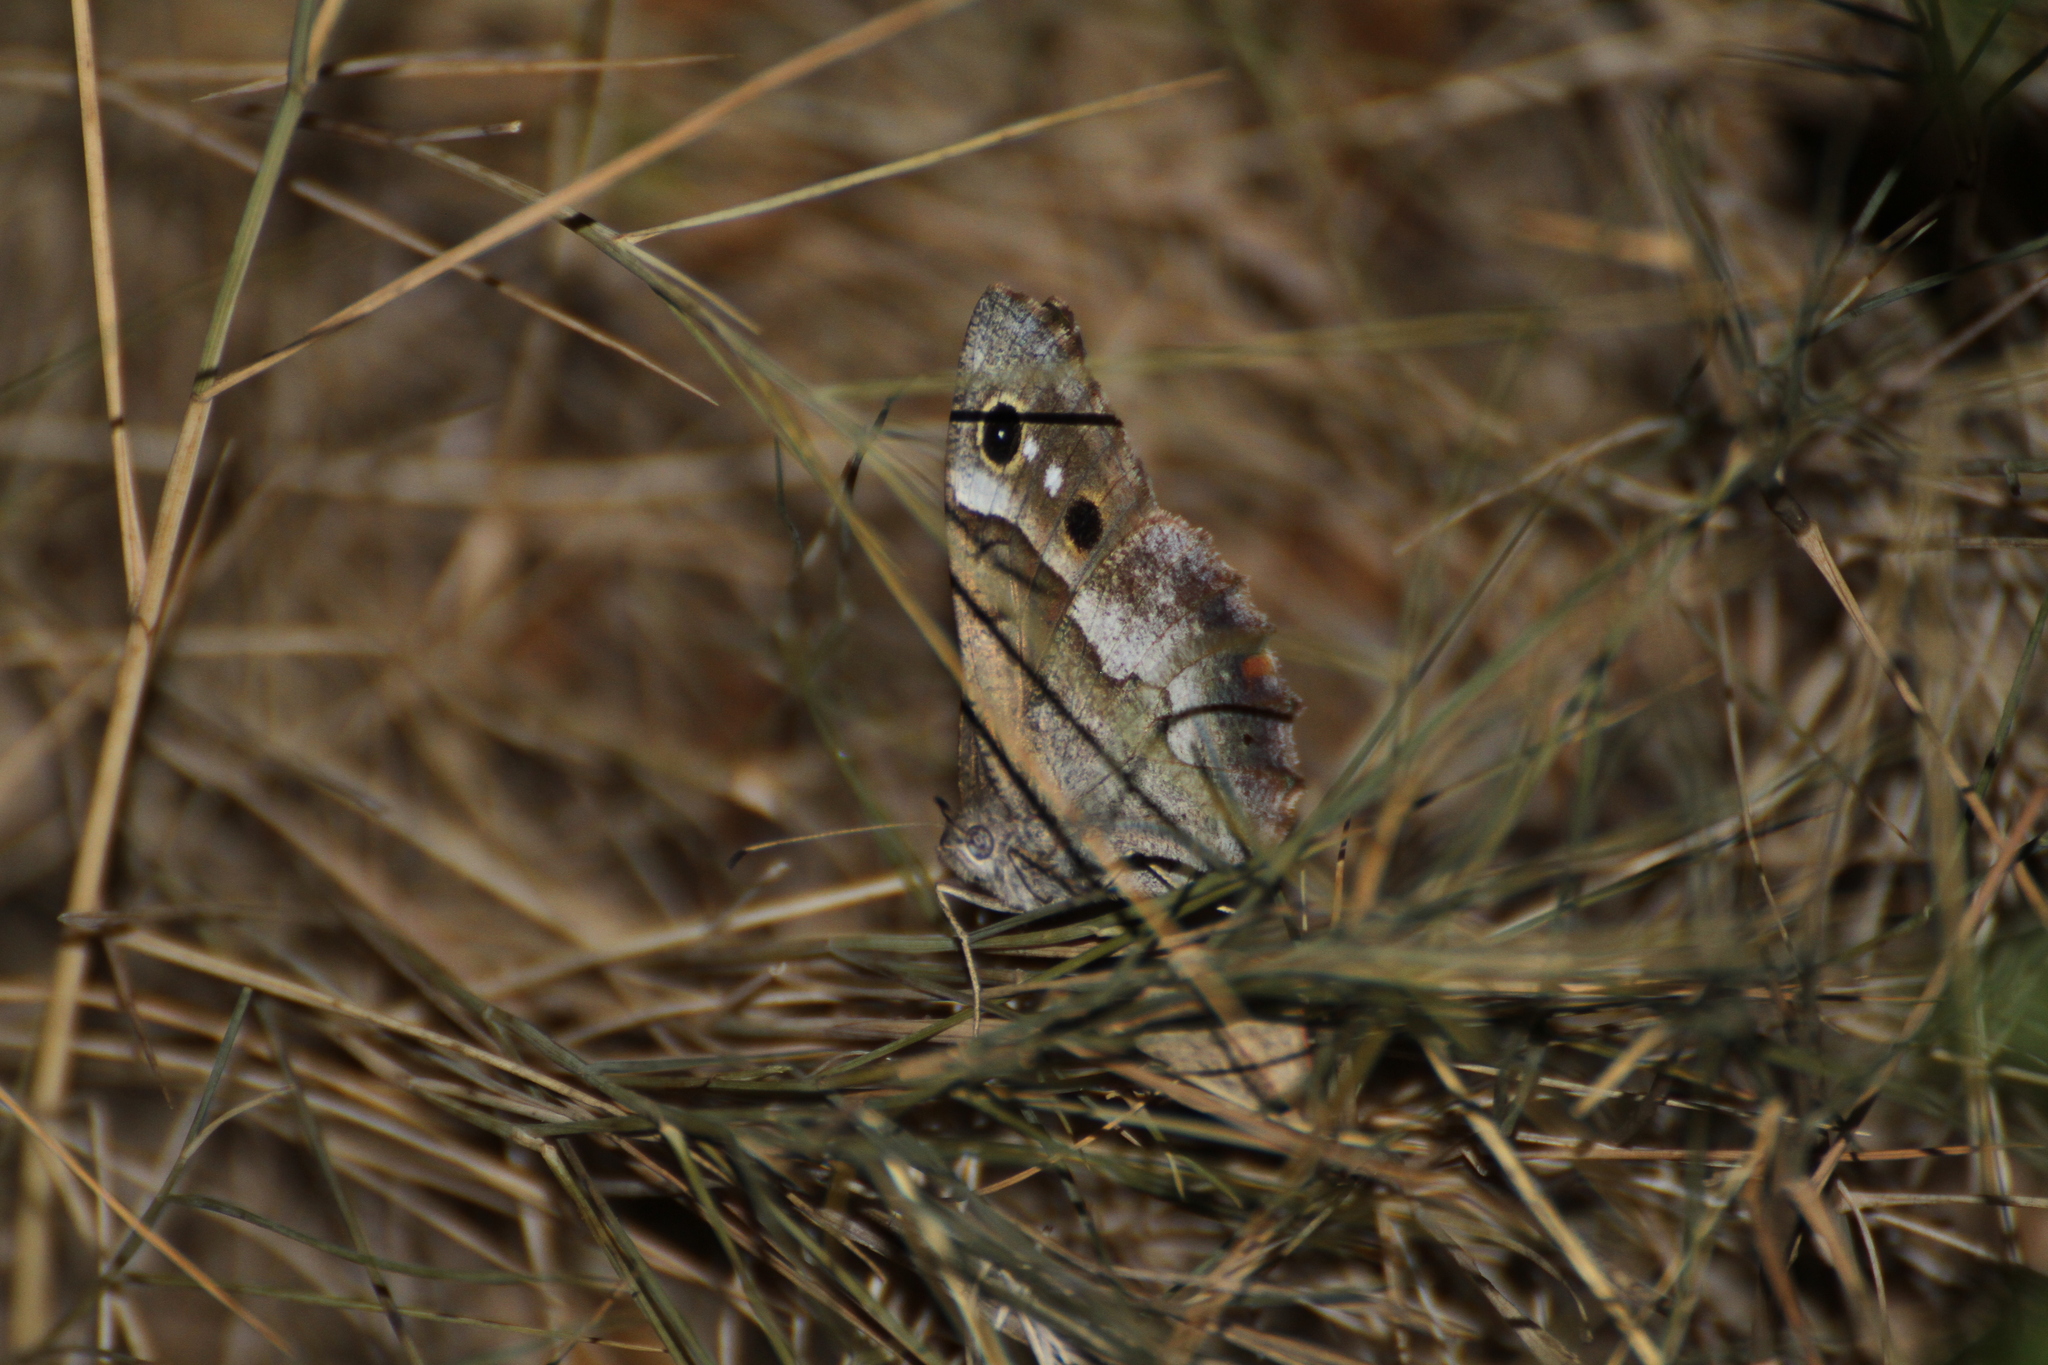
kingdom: Animalia
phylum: Arthropoda
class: Insecta
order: Lepidoptera
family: Nymphalidae
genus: Hipparchia
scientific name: Hipparchia statilinus
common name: Tree grayling
